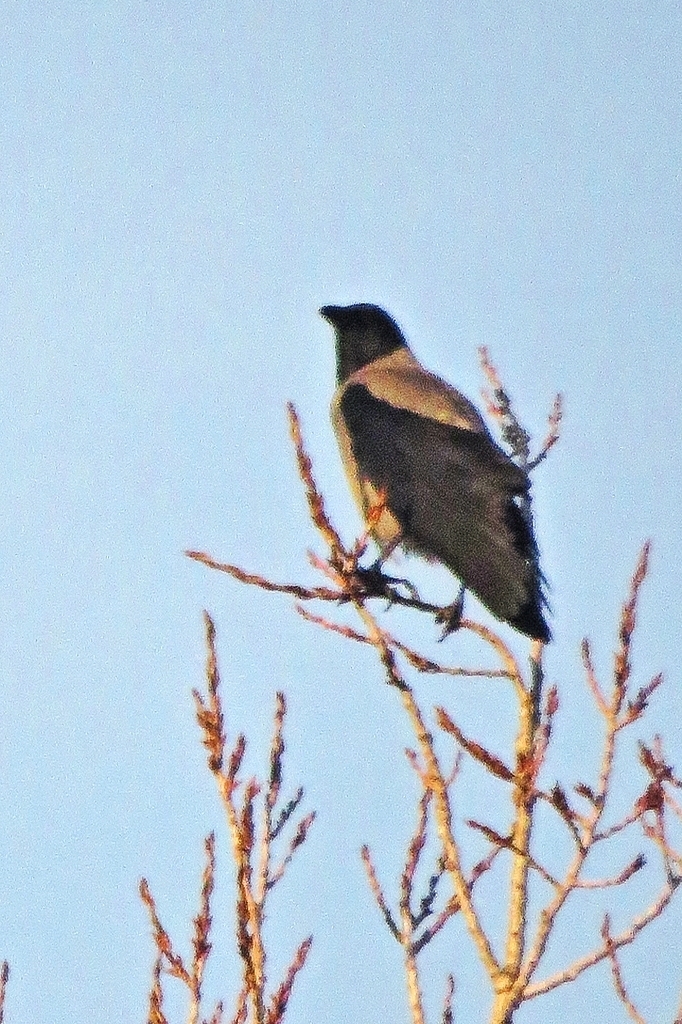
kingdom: Animalia
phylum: Chordata
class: Aves
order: Passeriformes
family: Corvidae
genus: Corvus
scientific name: Corvus cornix
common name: Hooded crow
